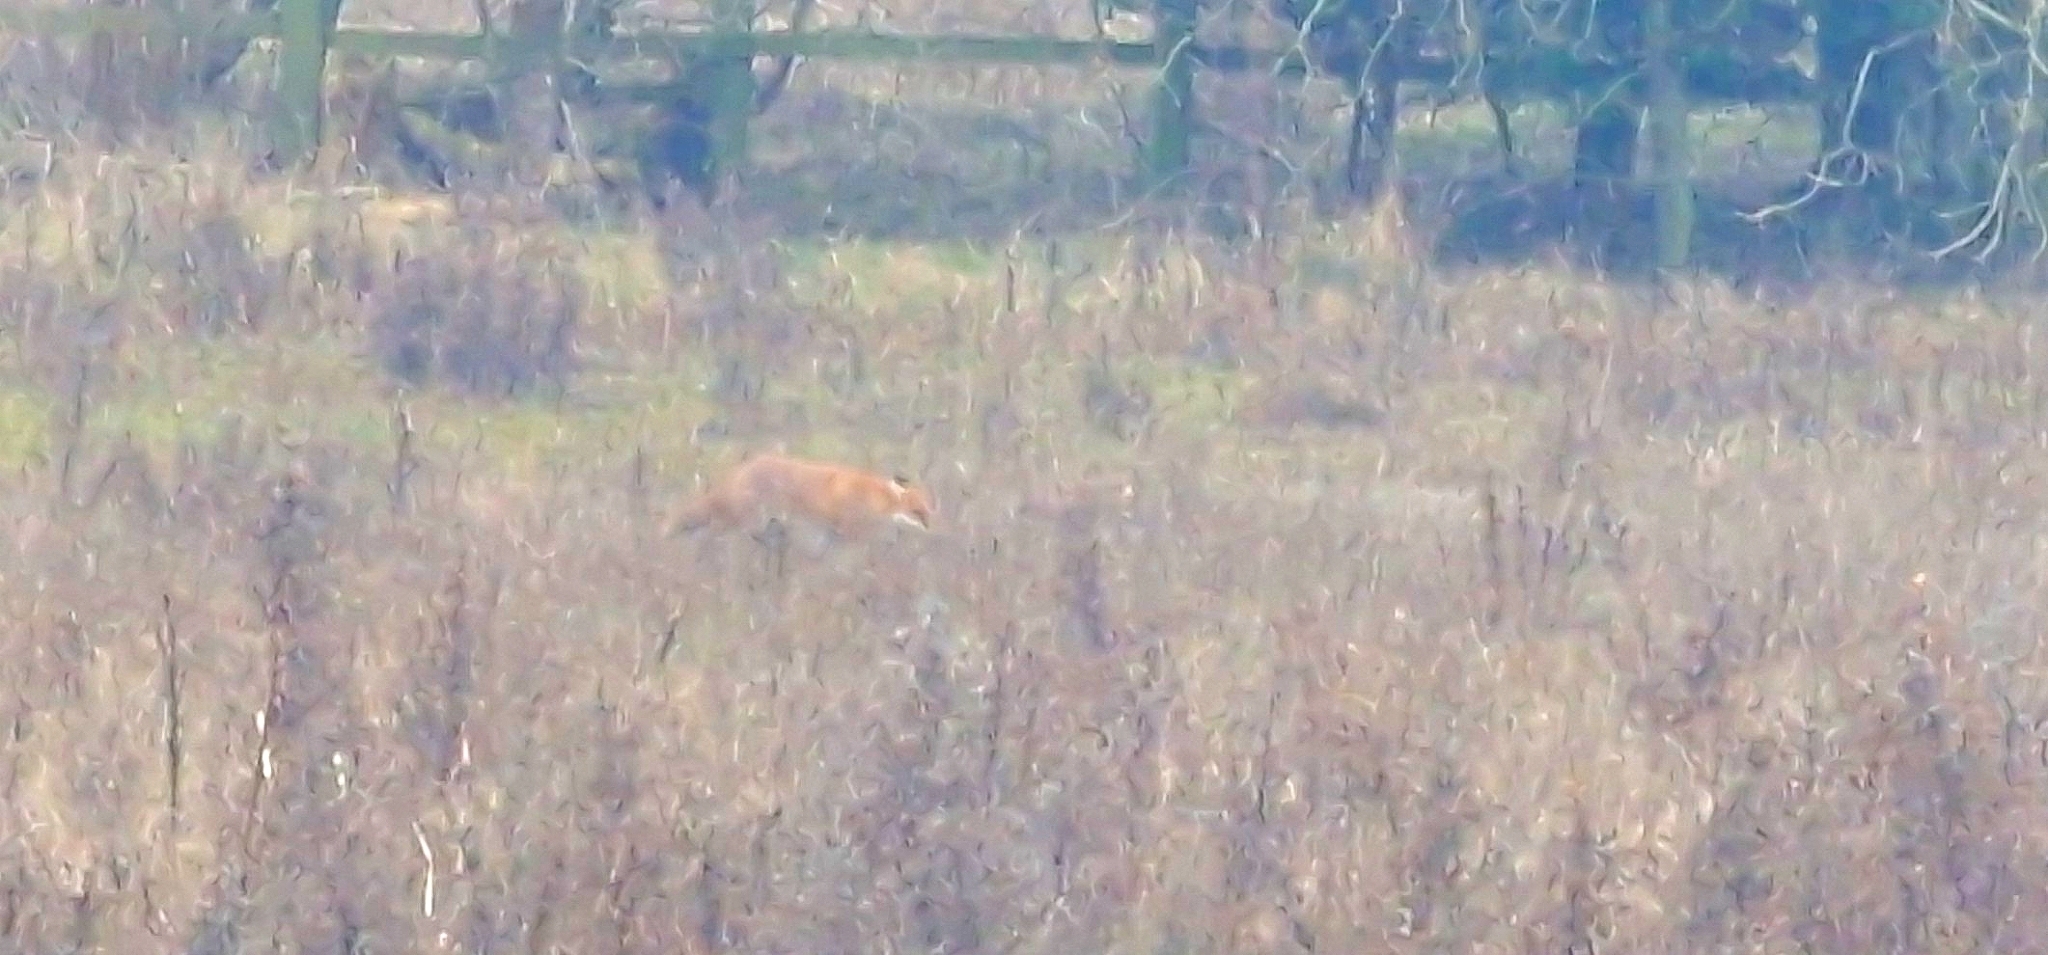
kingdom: Animalia
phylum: Chordata
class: Mammalia
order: Carnivora
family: Canidae
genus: Vulpes
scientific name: Vulpes vulpes
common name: Red fox
